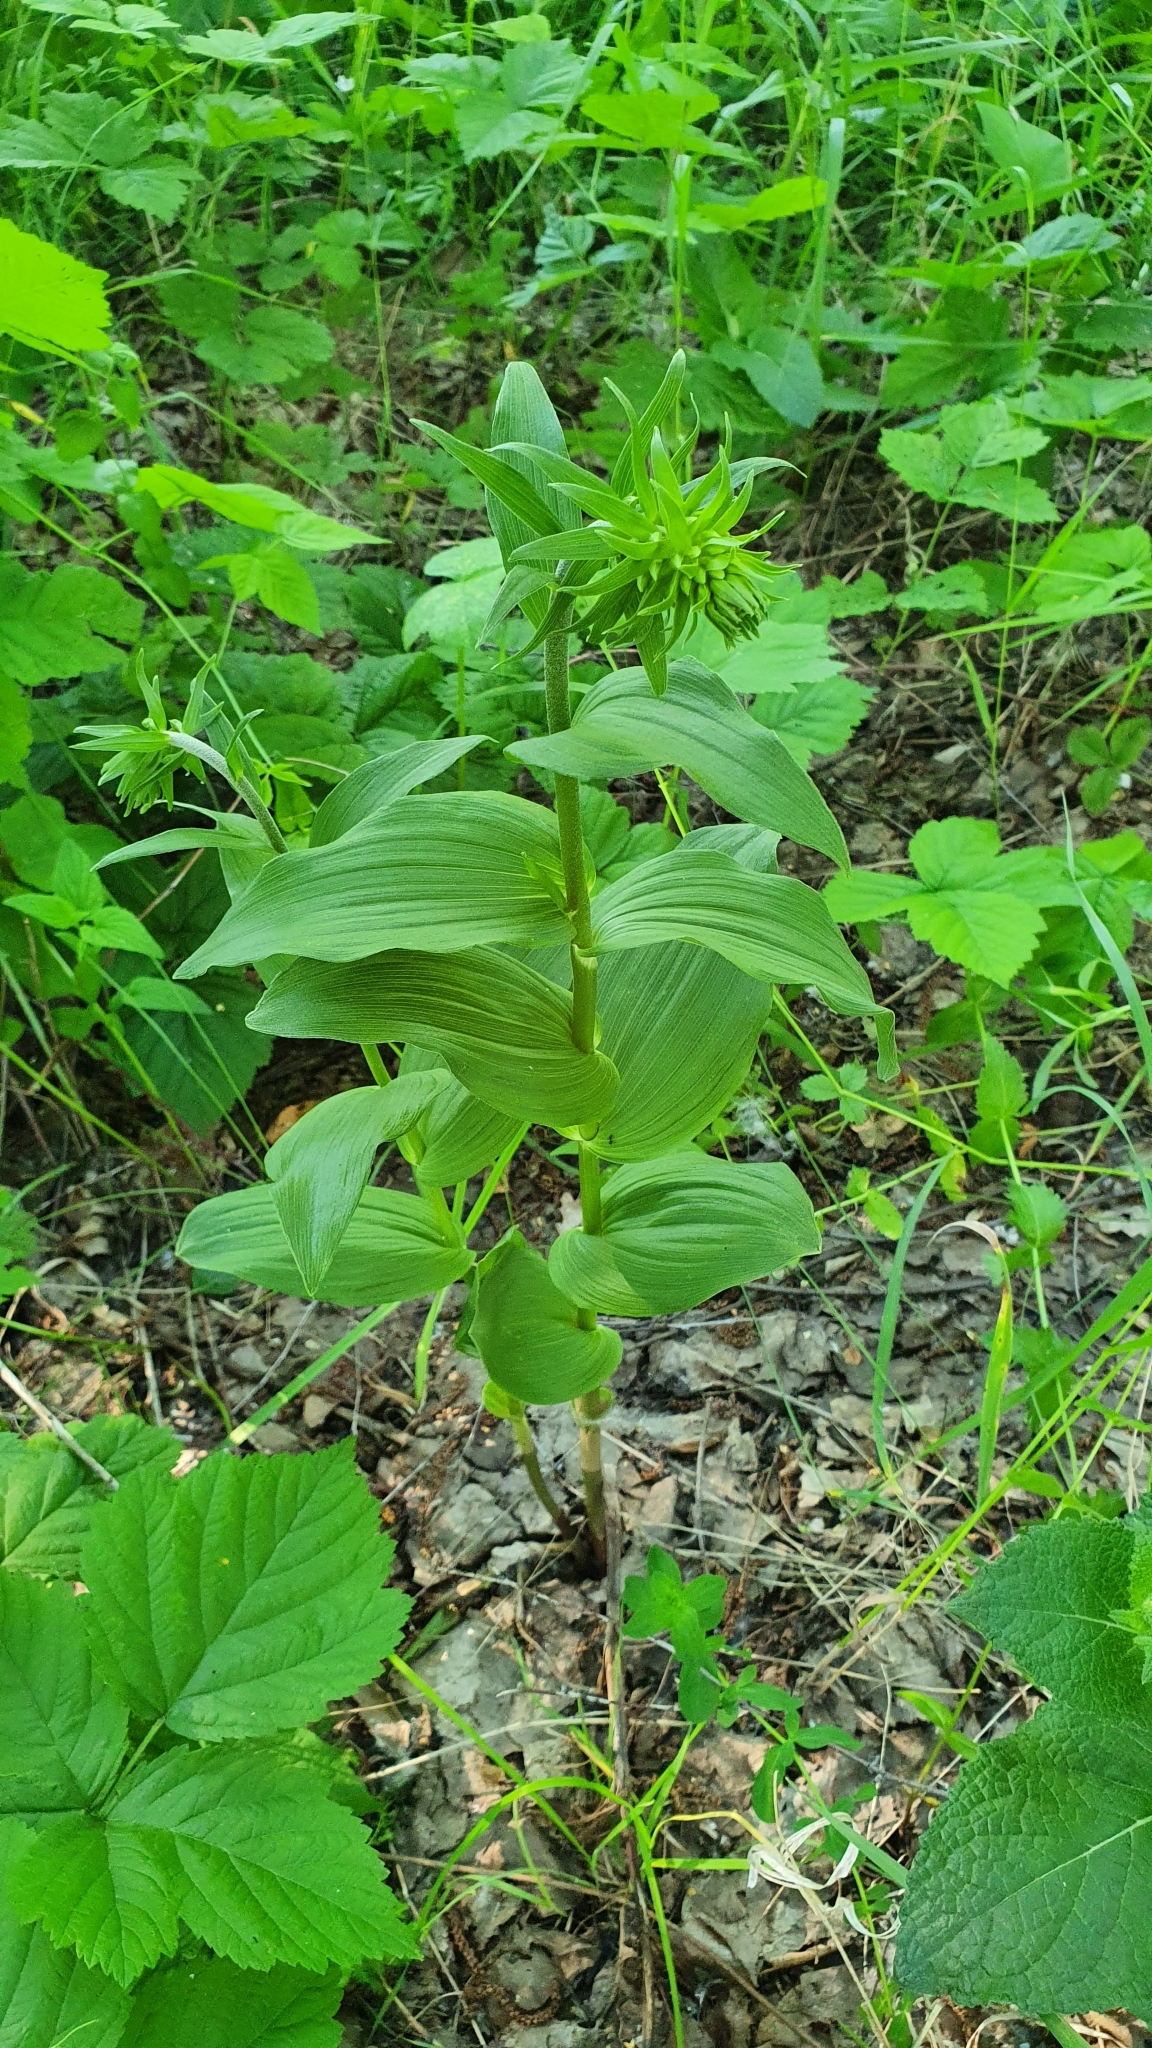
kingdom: Plantae
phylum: Tracheophyta
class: Liliopsida
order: Asparagales
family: Orchidaceae
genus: Epipactis
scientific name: Epipactis helleborine
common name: Broad-leaved helleborine
